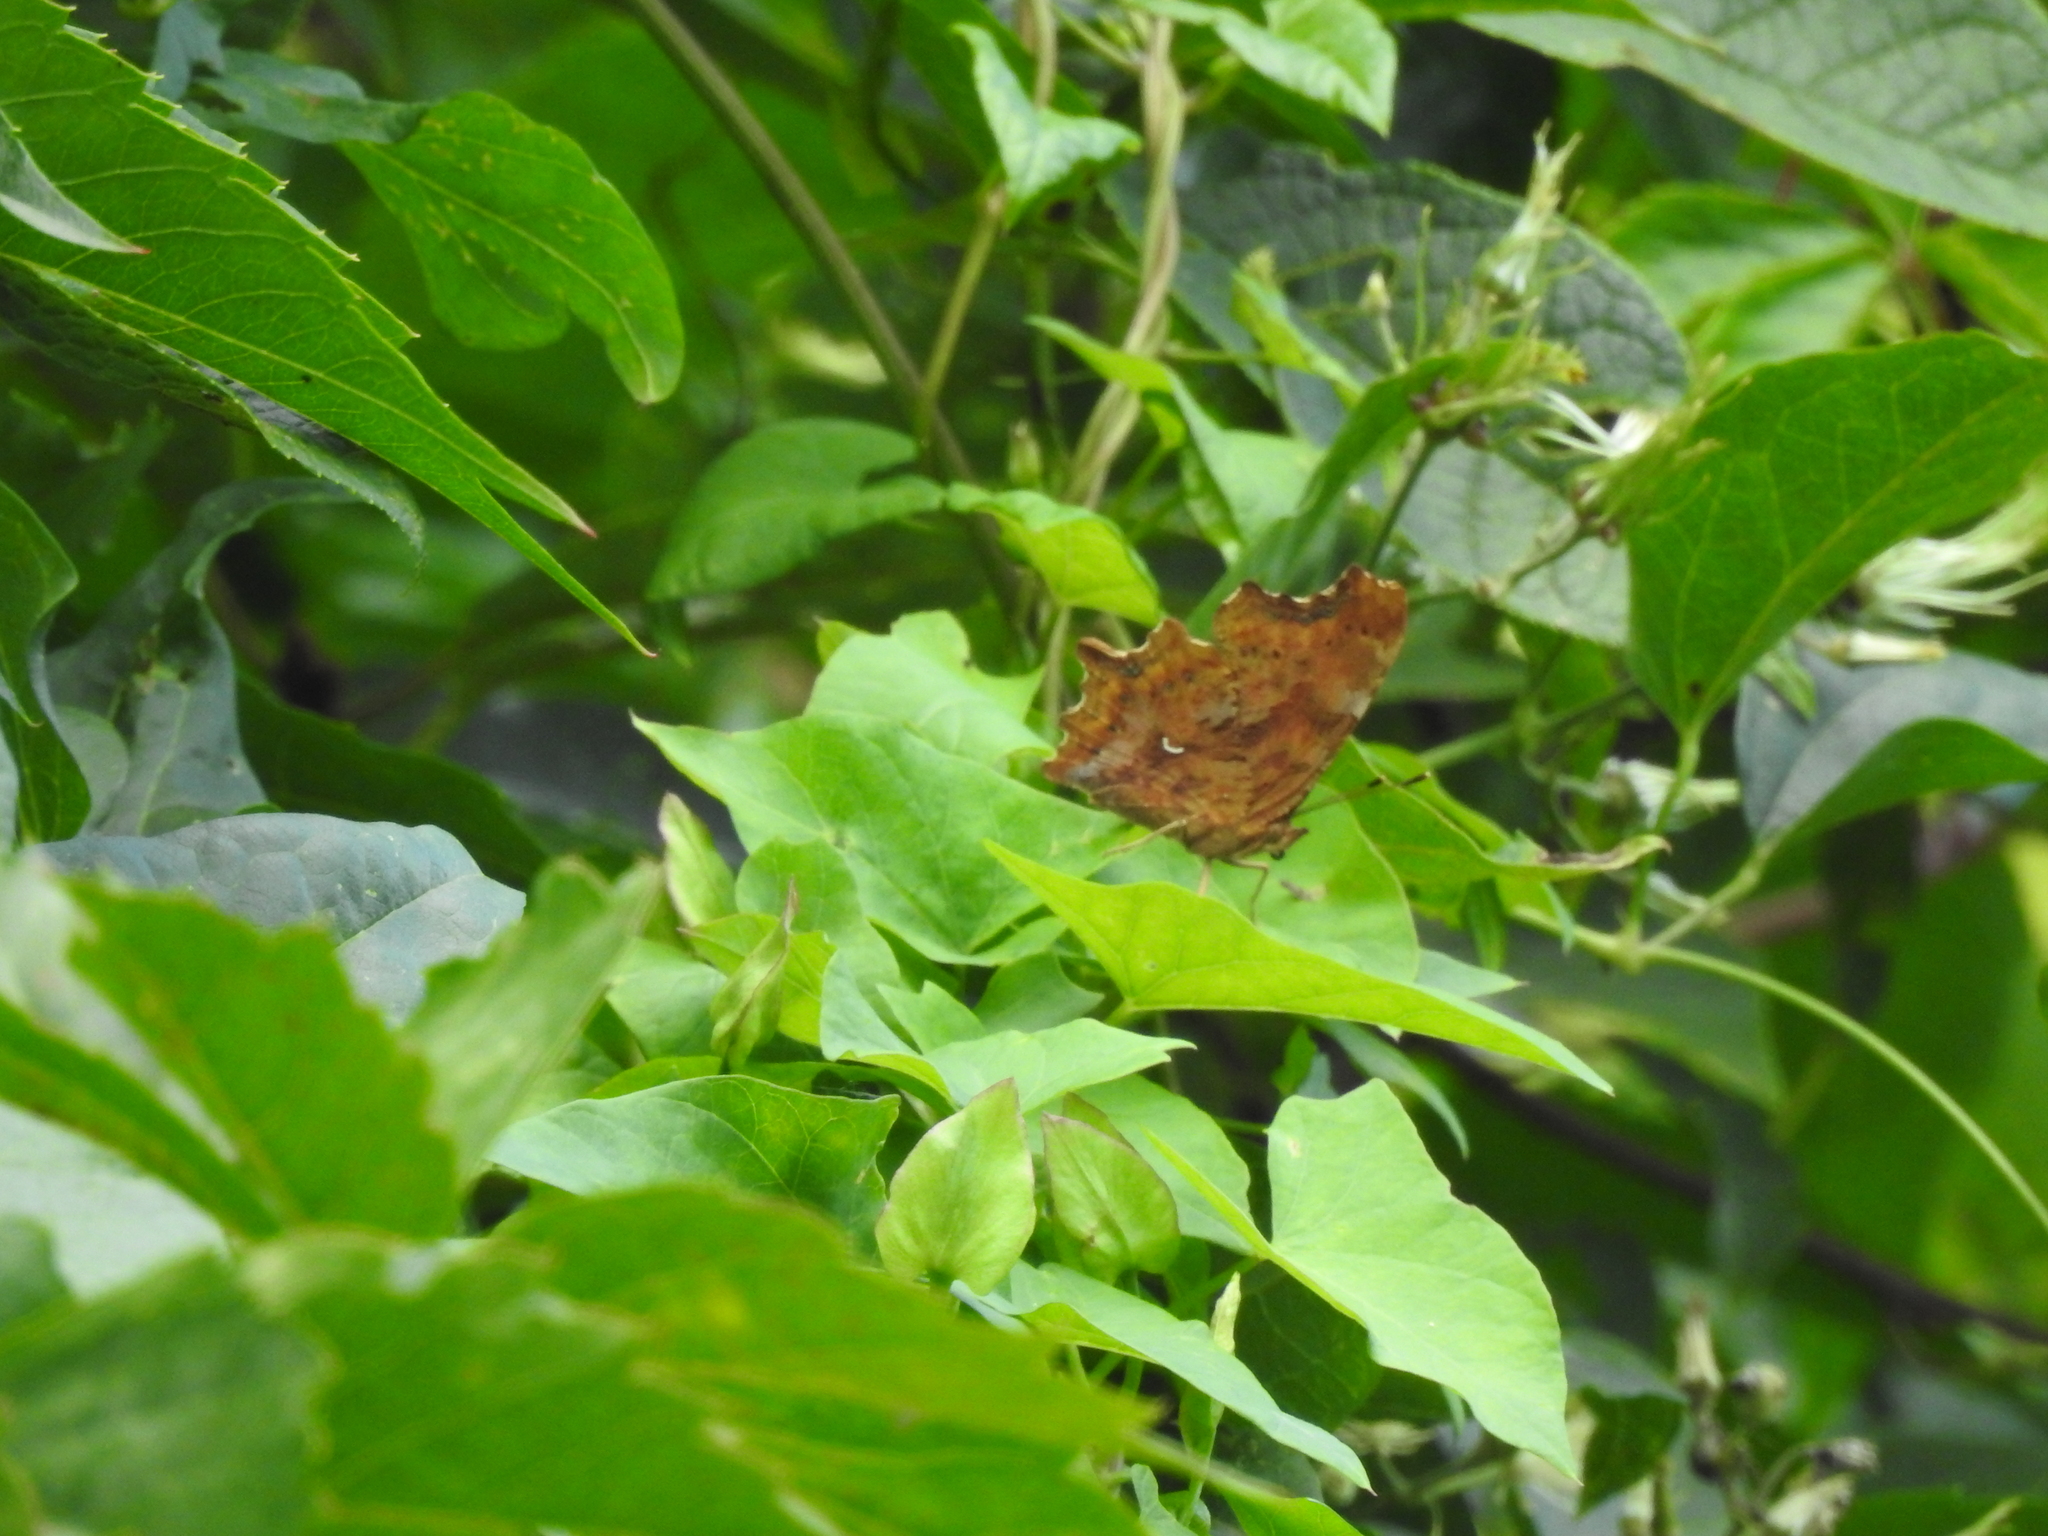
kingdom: Animalia
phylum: Arthropoda
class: Insecta
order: Lepidoptera
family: Nymphalidae
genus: Polygonia
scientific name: Polygonia c-album
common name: Comma
